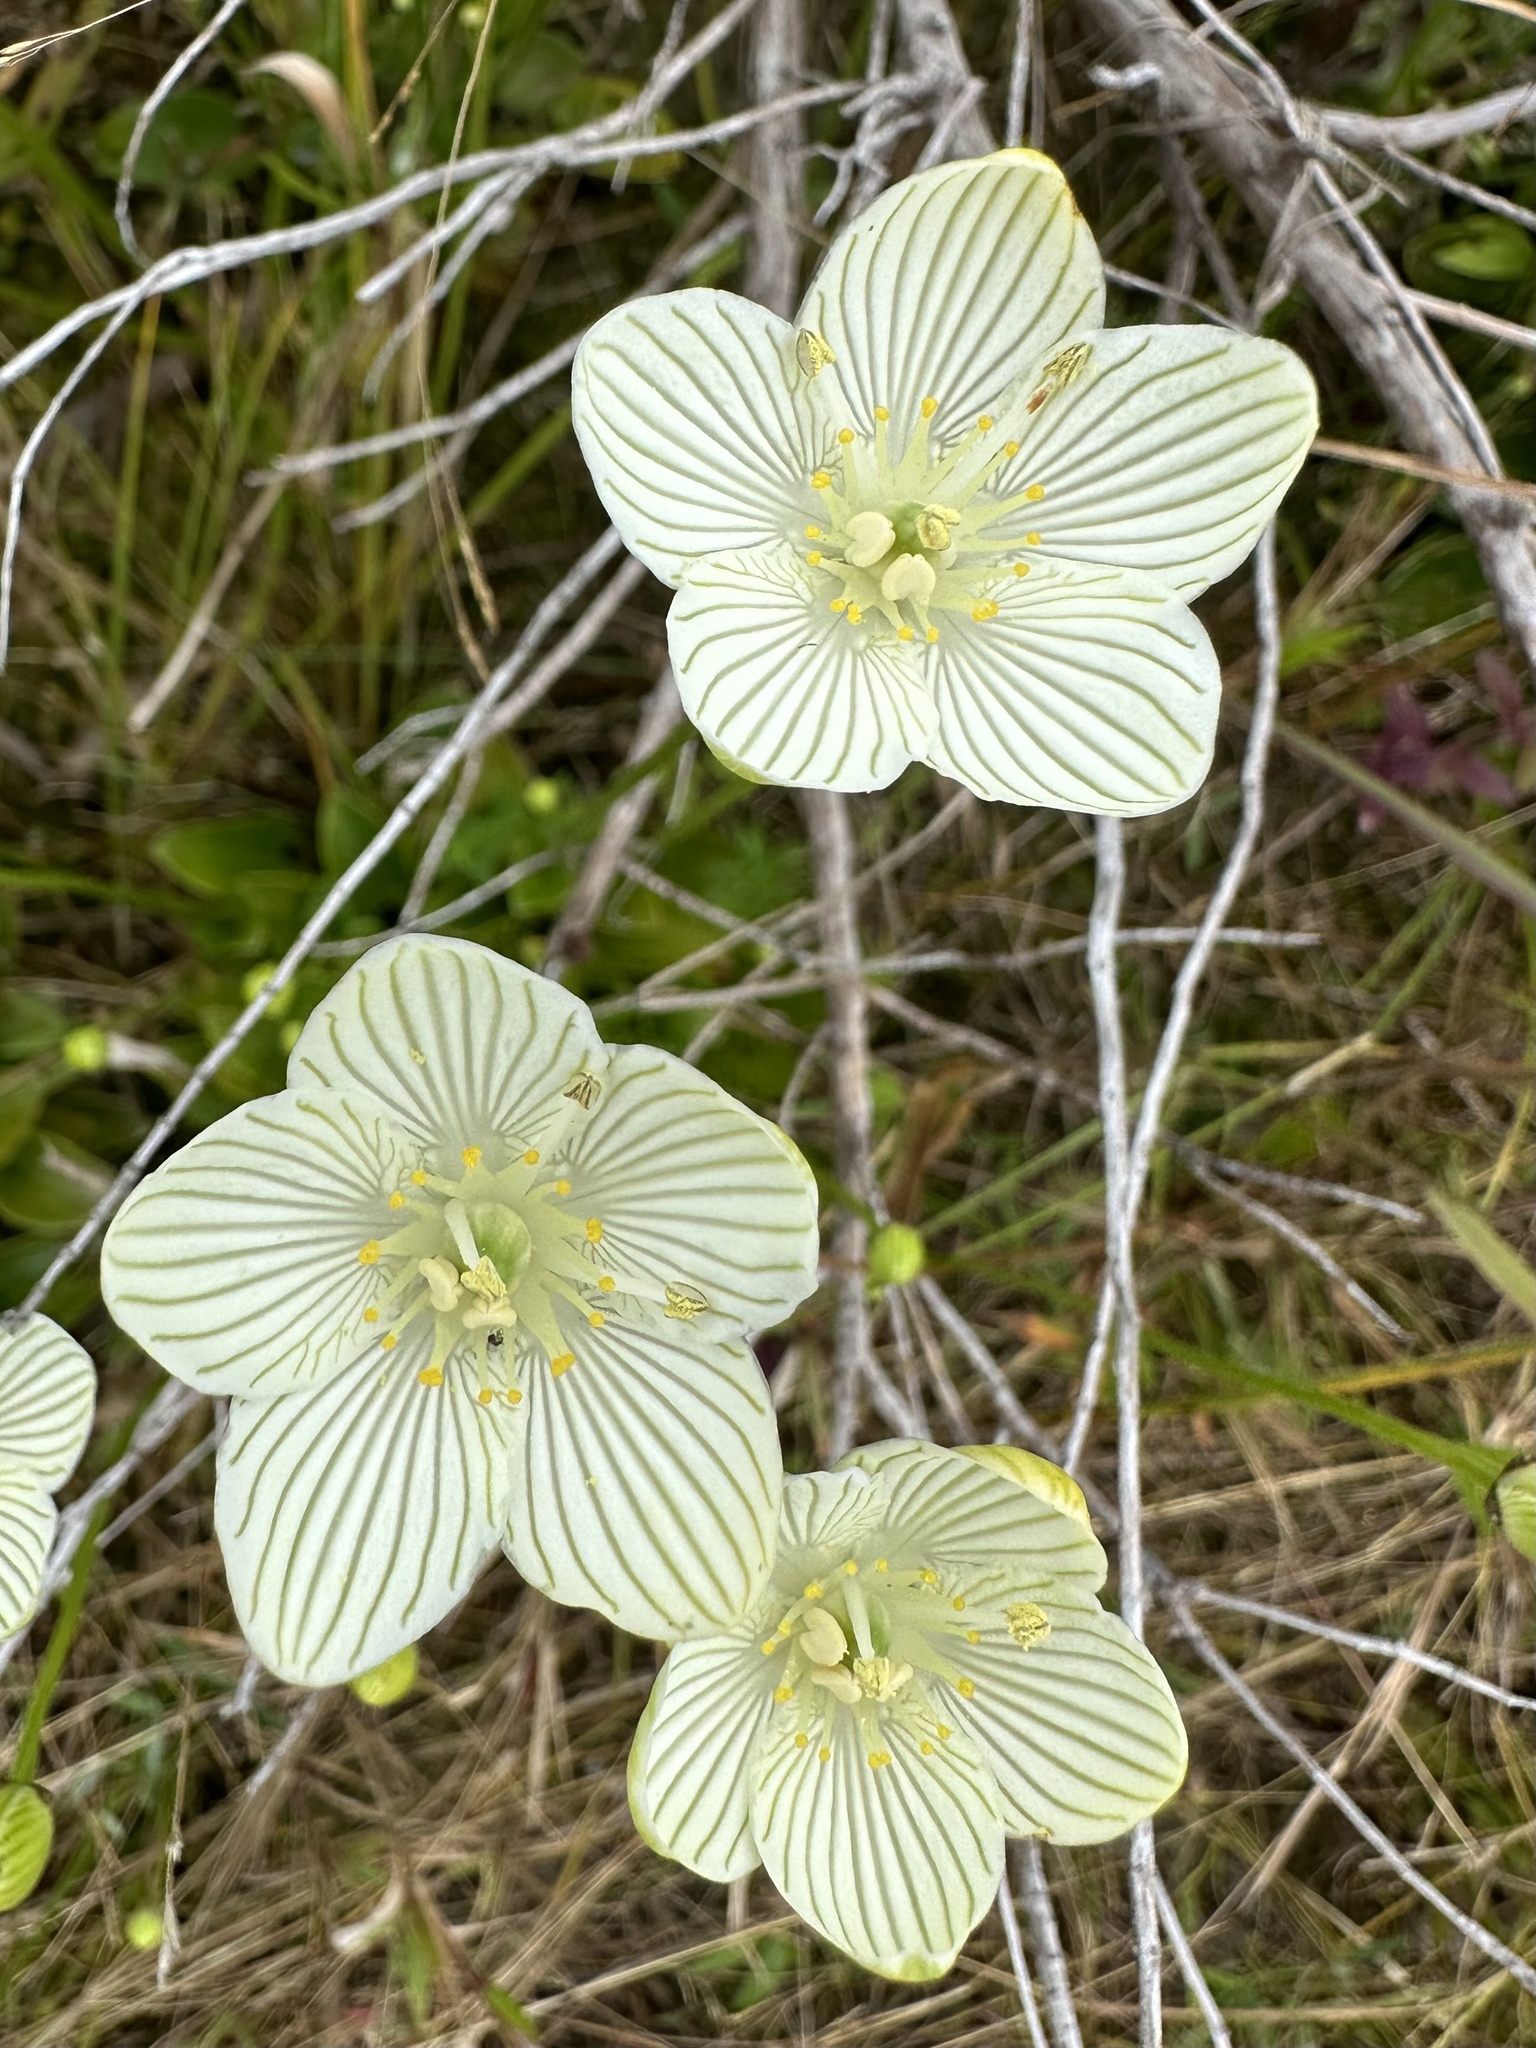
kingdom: Plantae
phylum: Tracheophyta
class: Magnoliopsida
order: Celastrales
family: Parnassiaceae
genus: Parnassia
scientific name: Parnassia glauca
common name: American grass-of-parnassus
